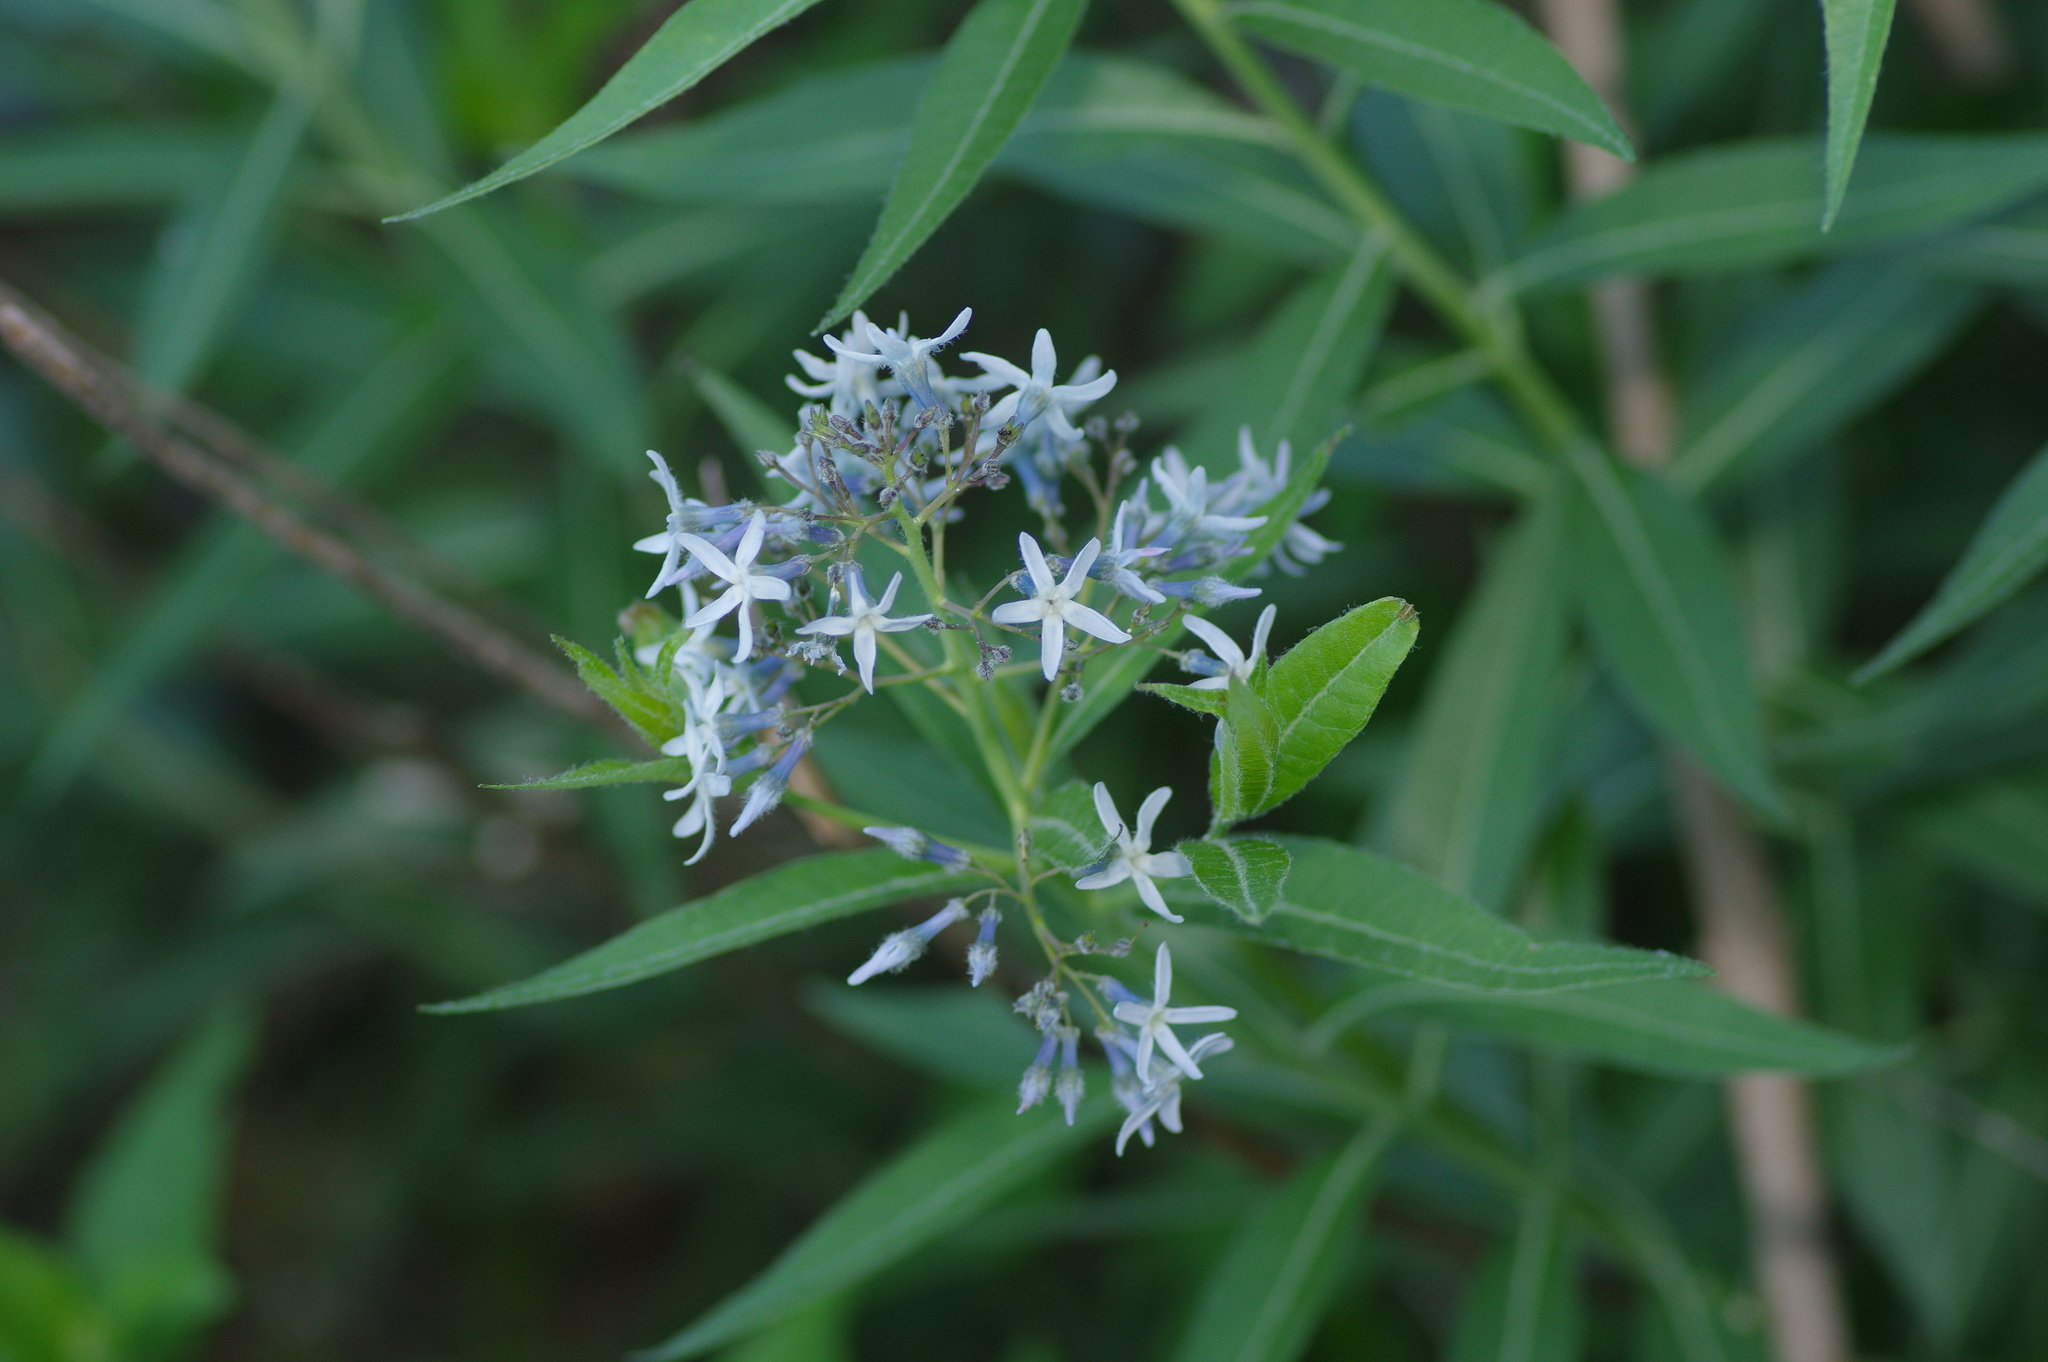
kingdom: Plantae
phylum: Tracheophyta
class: Magnoliopsida
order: Gentianales
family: Apocynaceae
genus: Amsonia
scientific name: Amsonia tabernaemontana
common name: Texas-star
